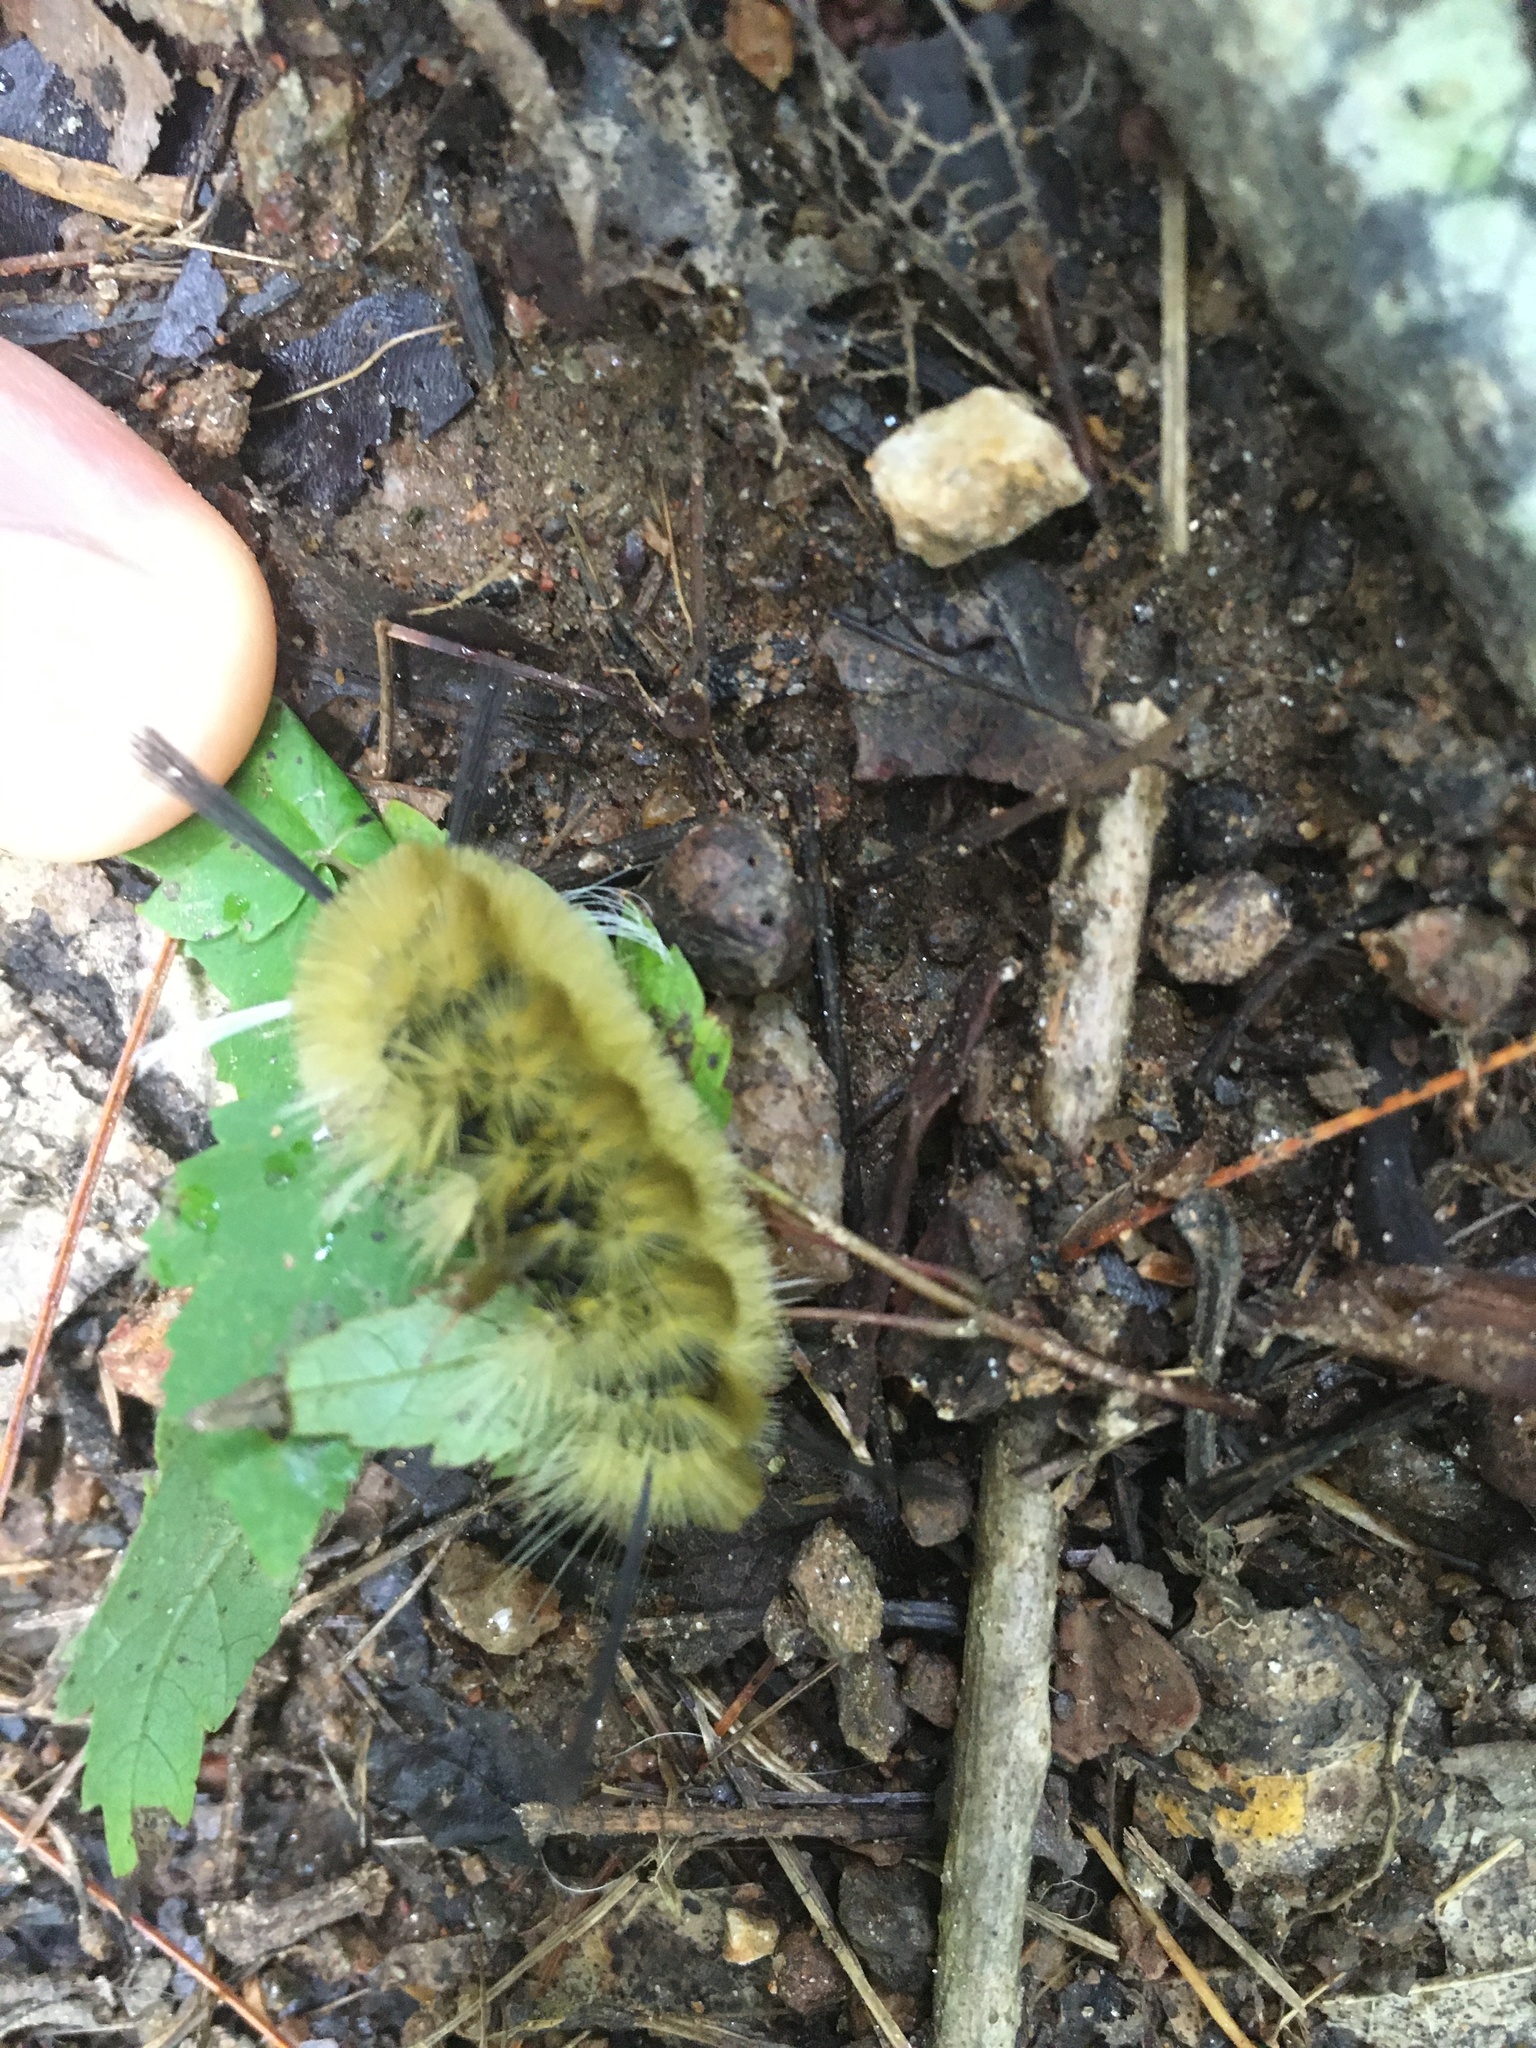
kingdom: Animalia
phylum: Arthropoda
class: Insecta
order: Lepidoptera
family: Erebidae
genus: Halysidota
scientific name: Halysidota tessellaris
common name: Banded tussock moth
